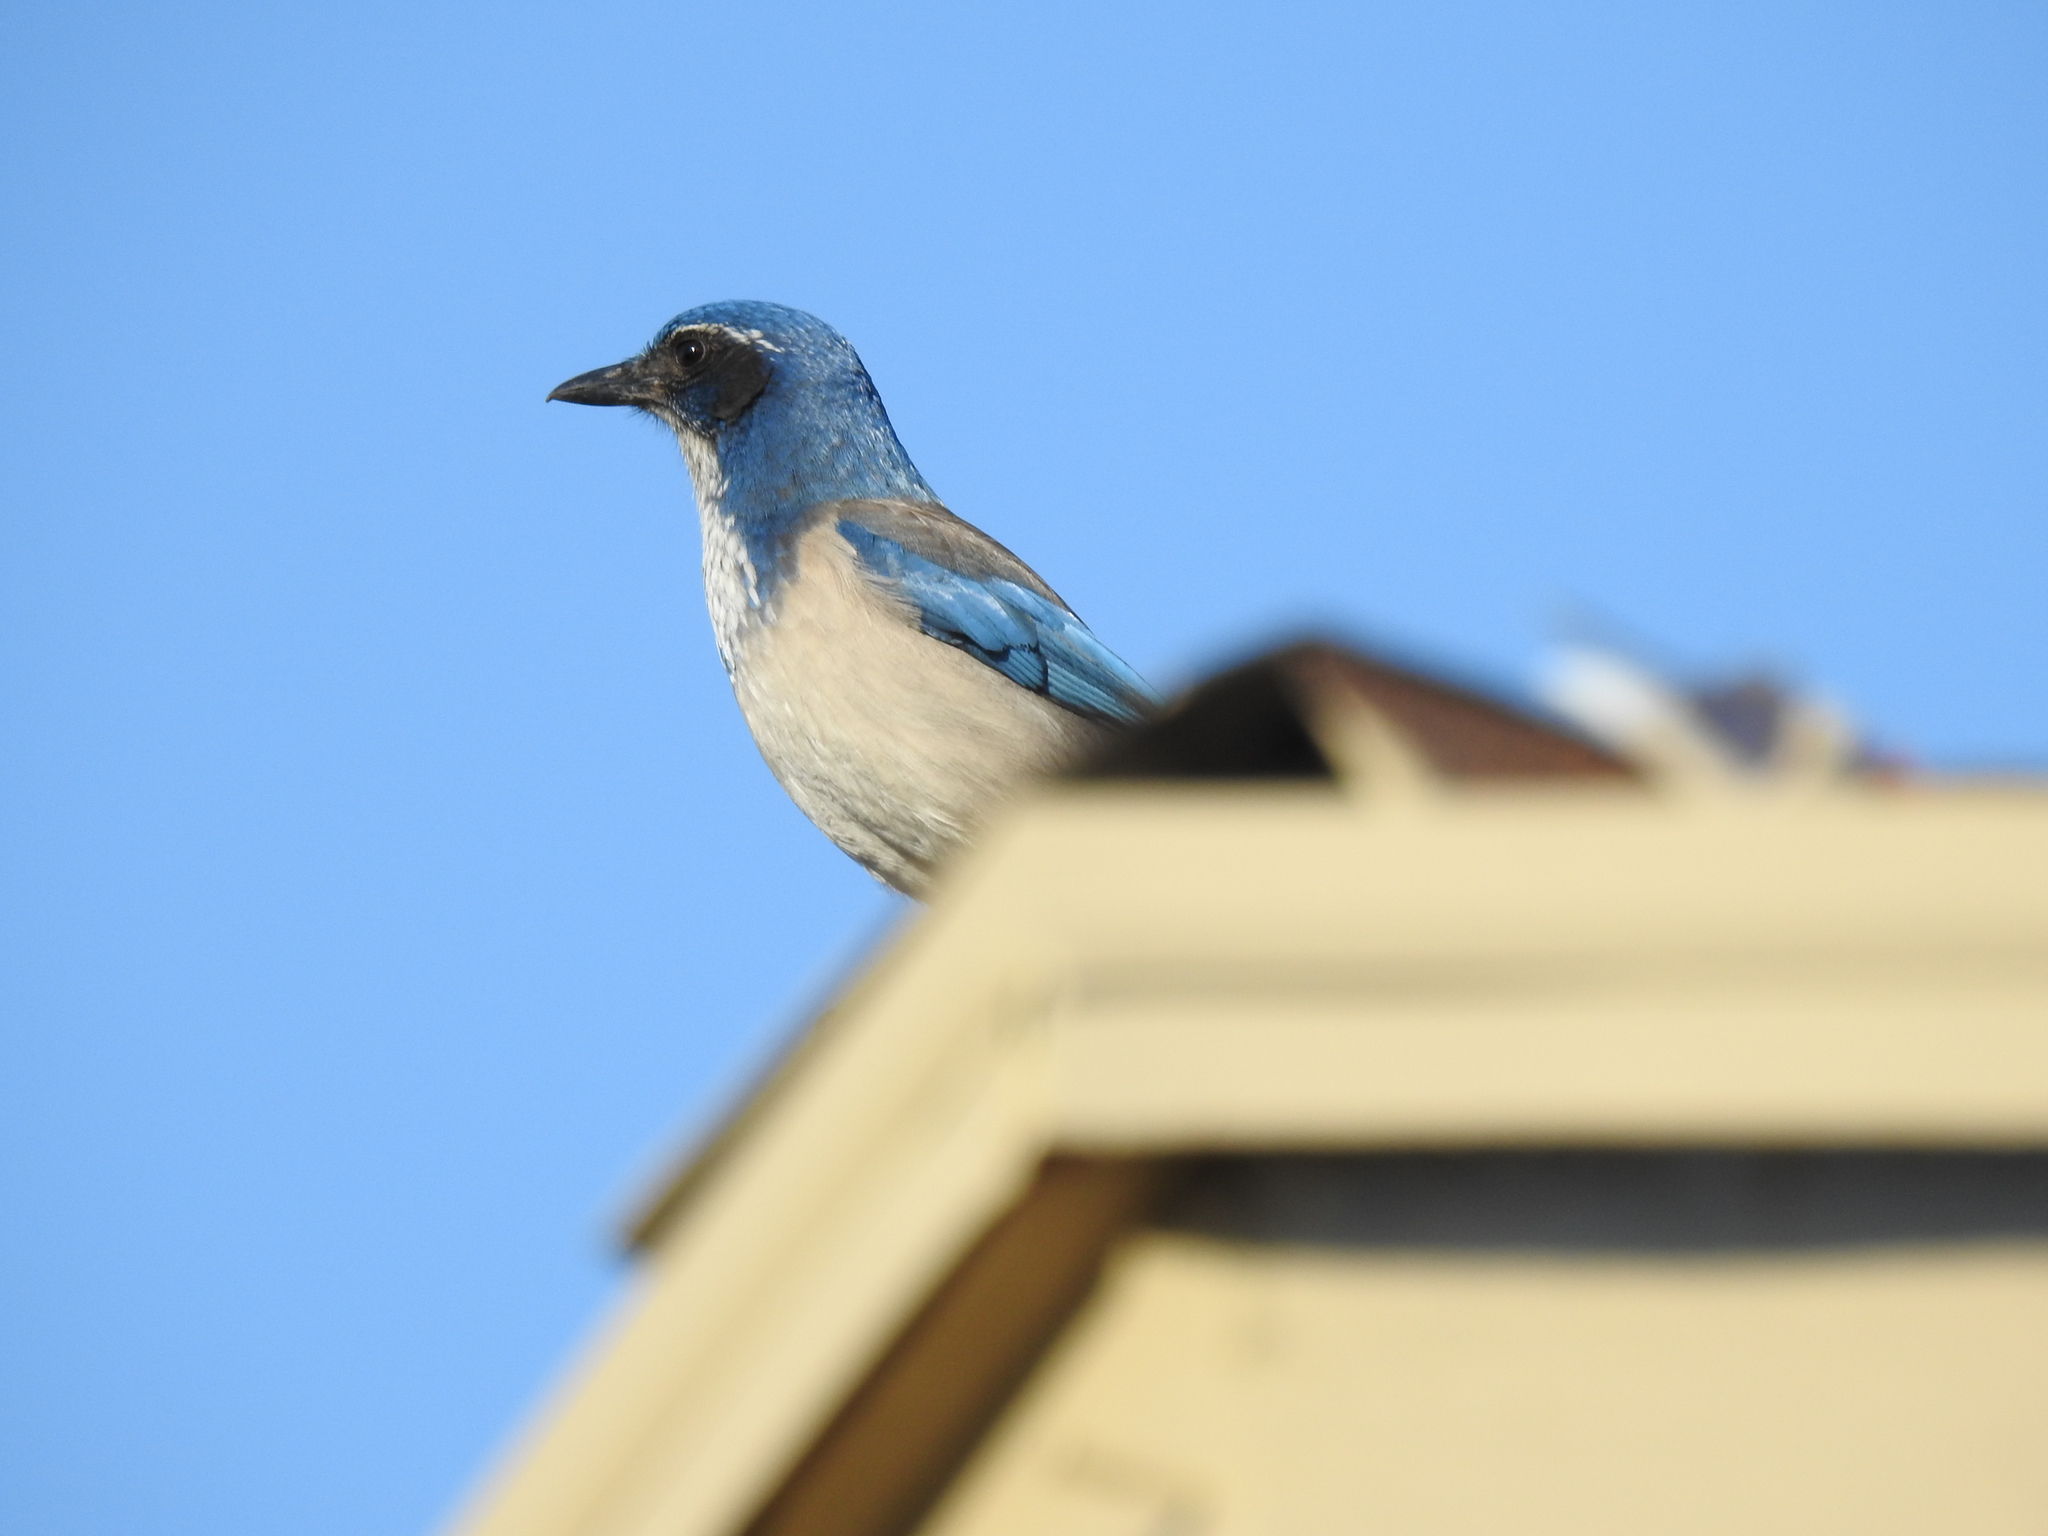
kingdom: Animalia
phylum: Chordata
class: Aves
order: Passeriformes
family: Corvidae
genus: Aphelocoma
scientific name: Aphelocoma californica
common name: California scrub-jay
